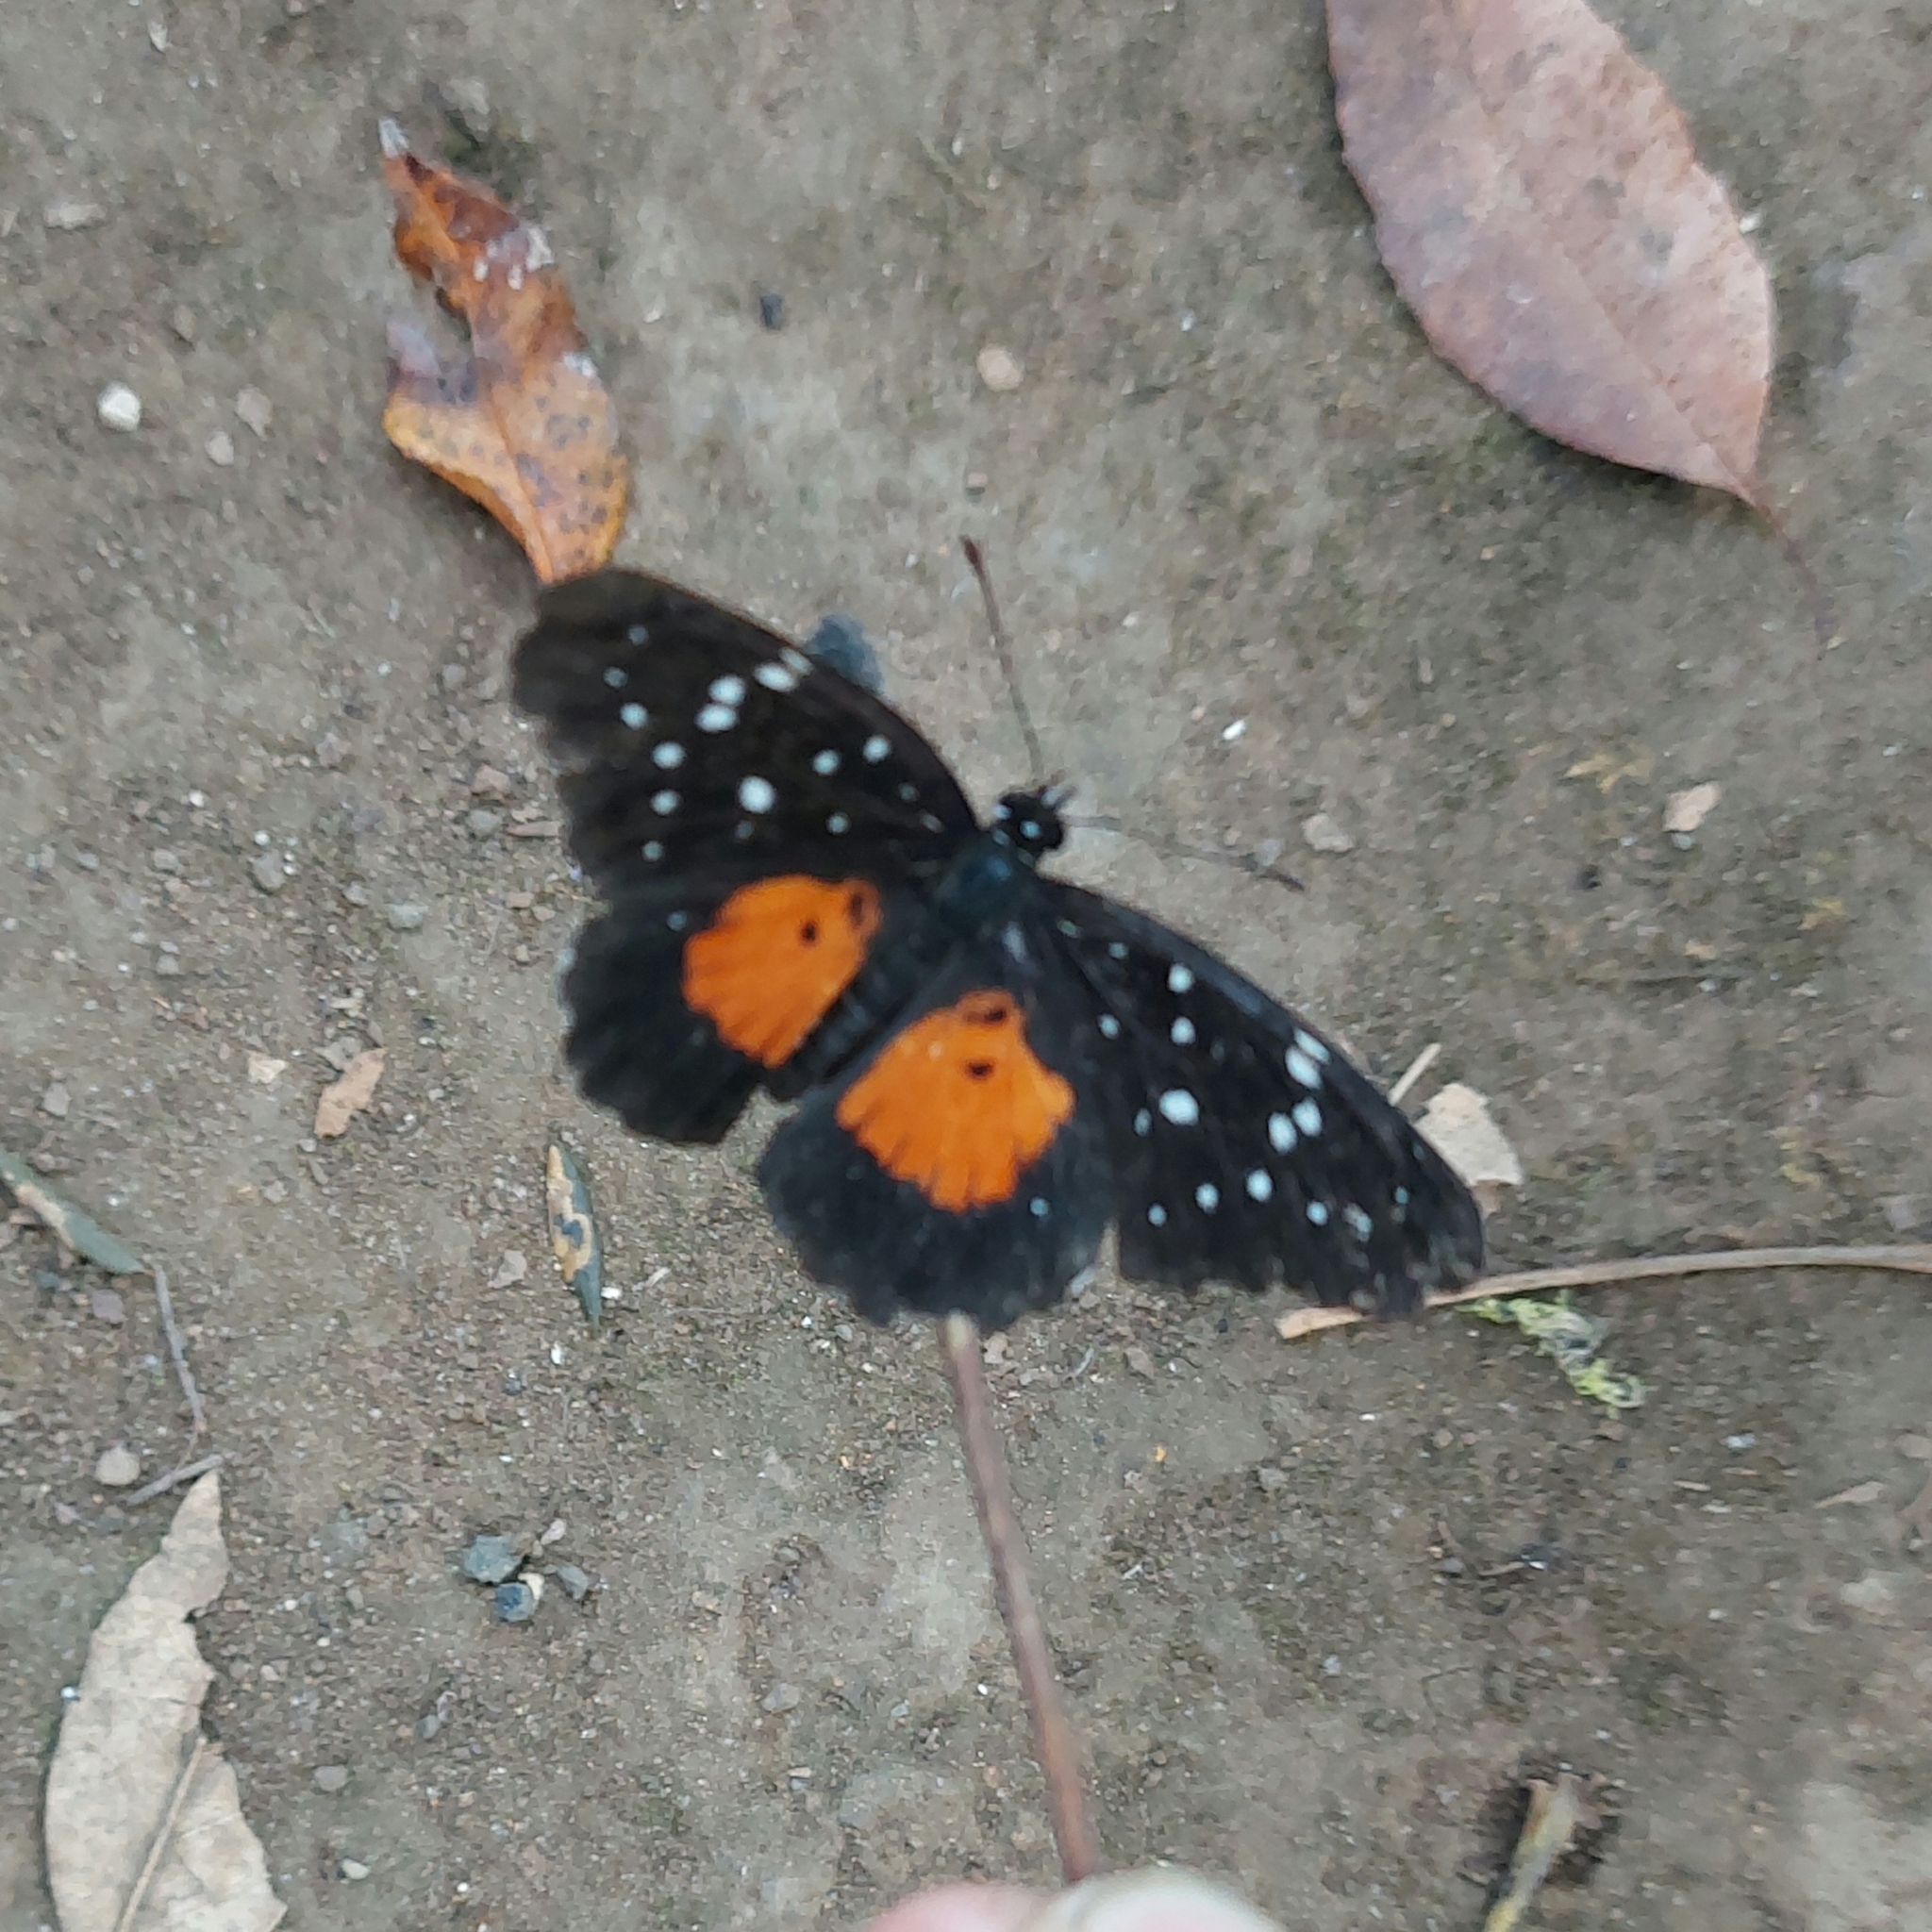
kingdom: Animalia
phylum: Arthropoda
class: Insecta
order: Lepidoptera
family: Nymphalidae
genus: Chlosyne
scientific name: Chlosyne janais
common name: Crimson patch
